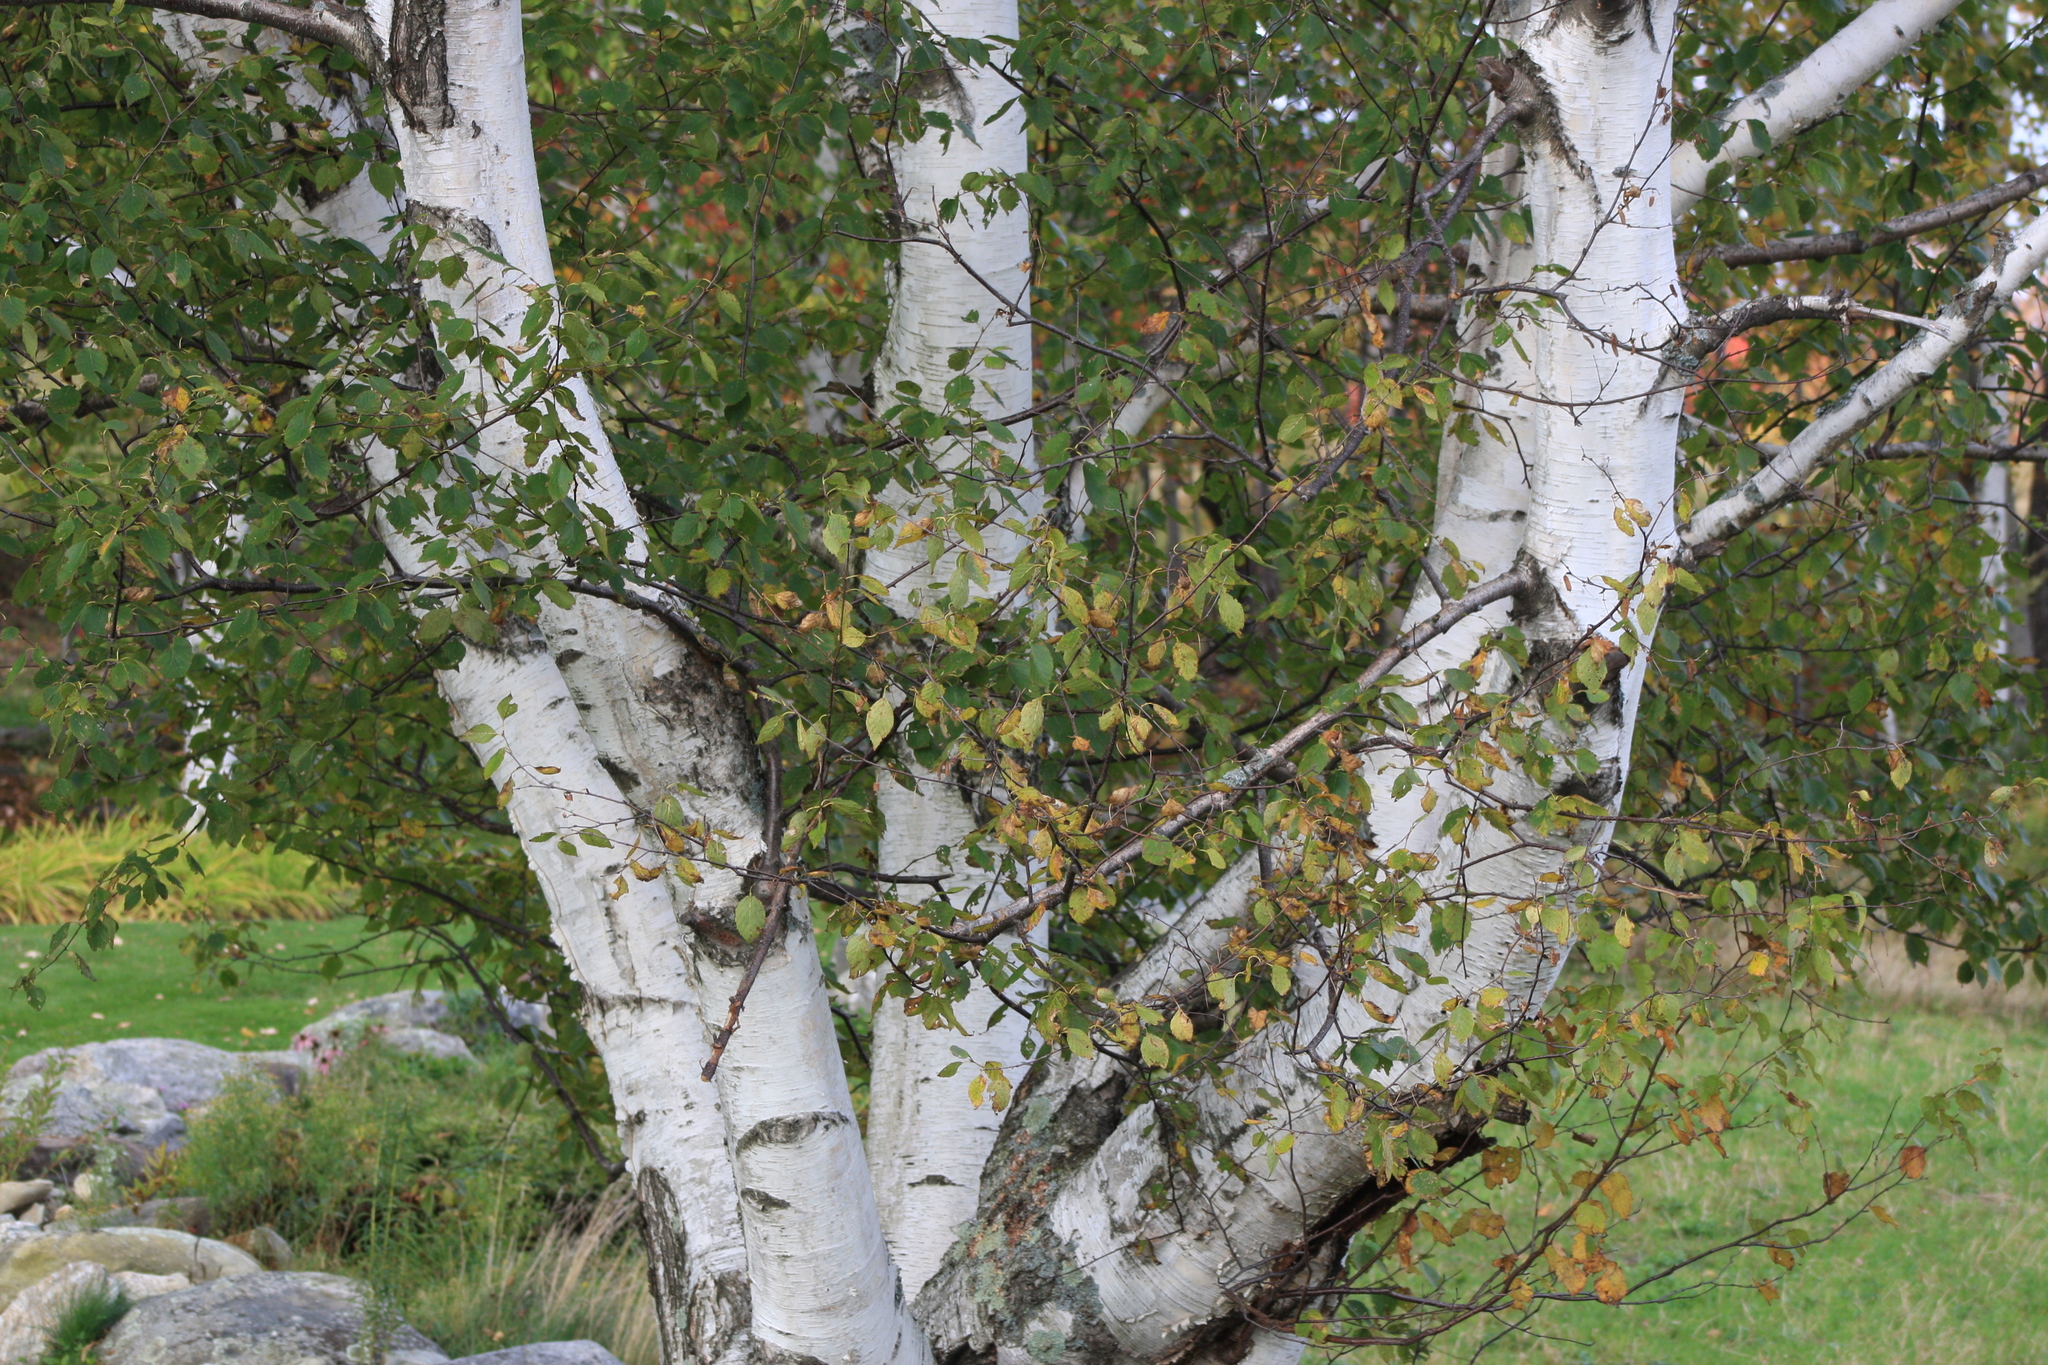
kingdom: Plantae
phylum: Tracheophyta
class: Magnoliopsida
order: Fagales
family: Betulaceae
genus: Betula
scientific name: Betula papyrifera
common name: Paper birch
